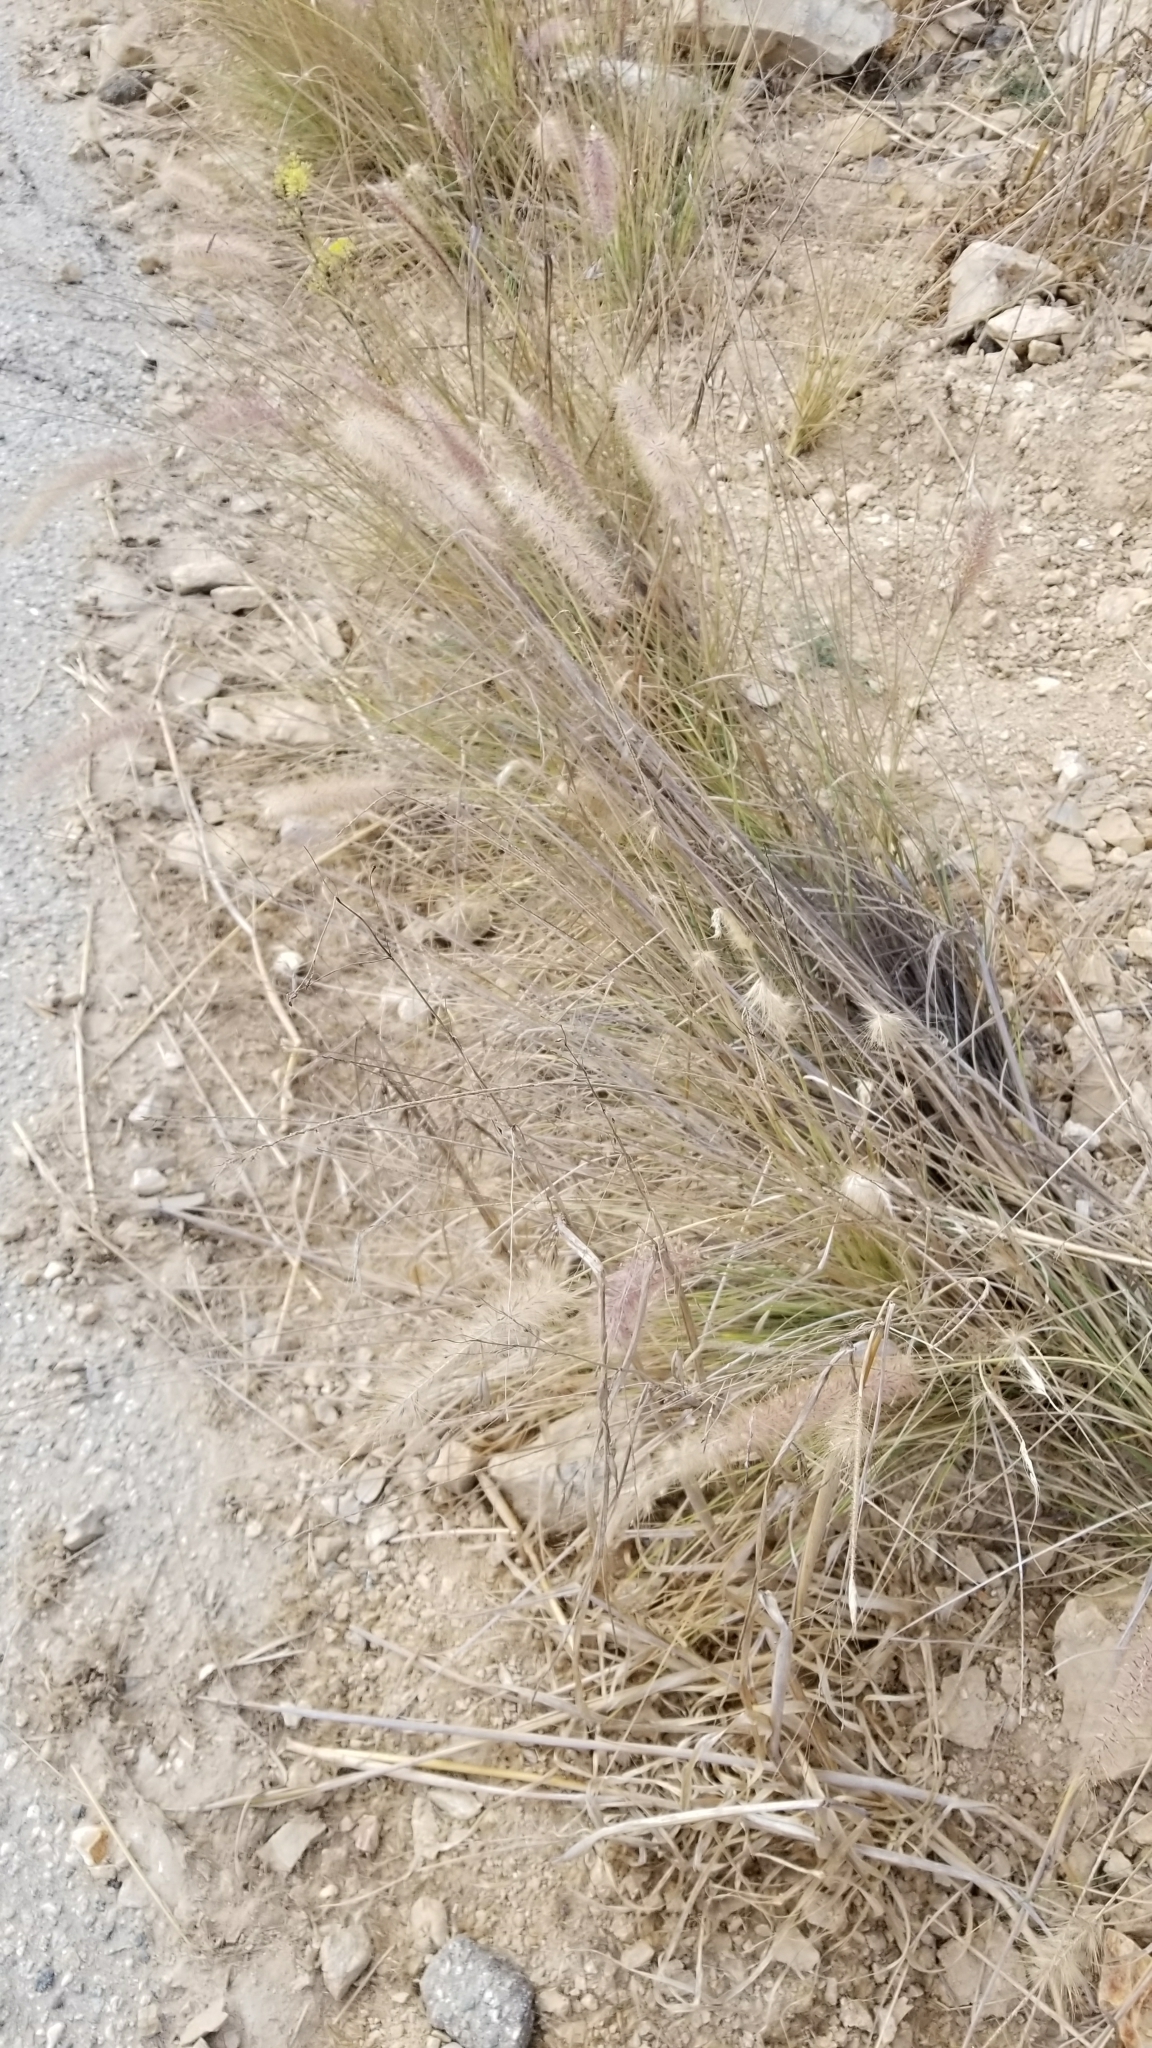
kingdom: Plantae
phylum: Tracheophyta
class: Liliopsida
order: Poales
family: Poaceae
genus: Cenchrus
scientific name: Cenchrus setaceus
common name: Crimson fountaingrass
